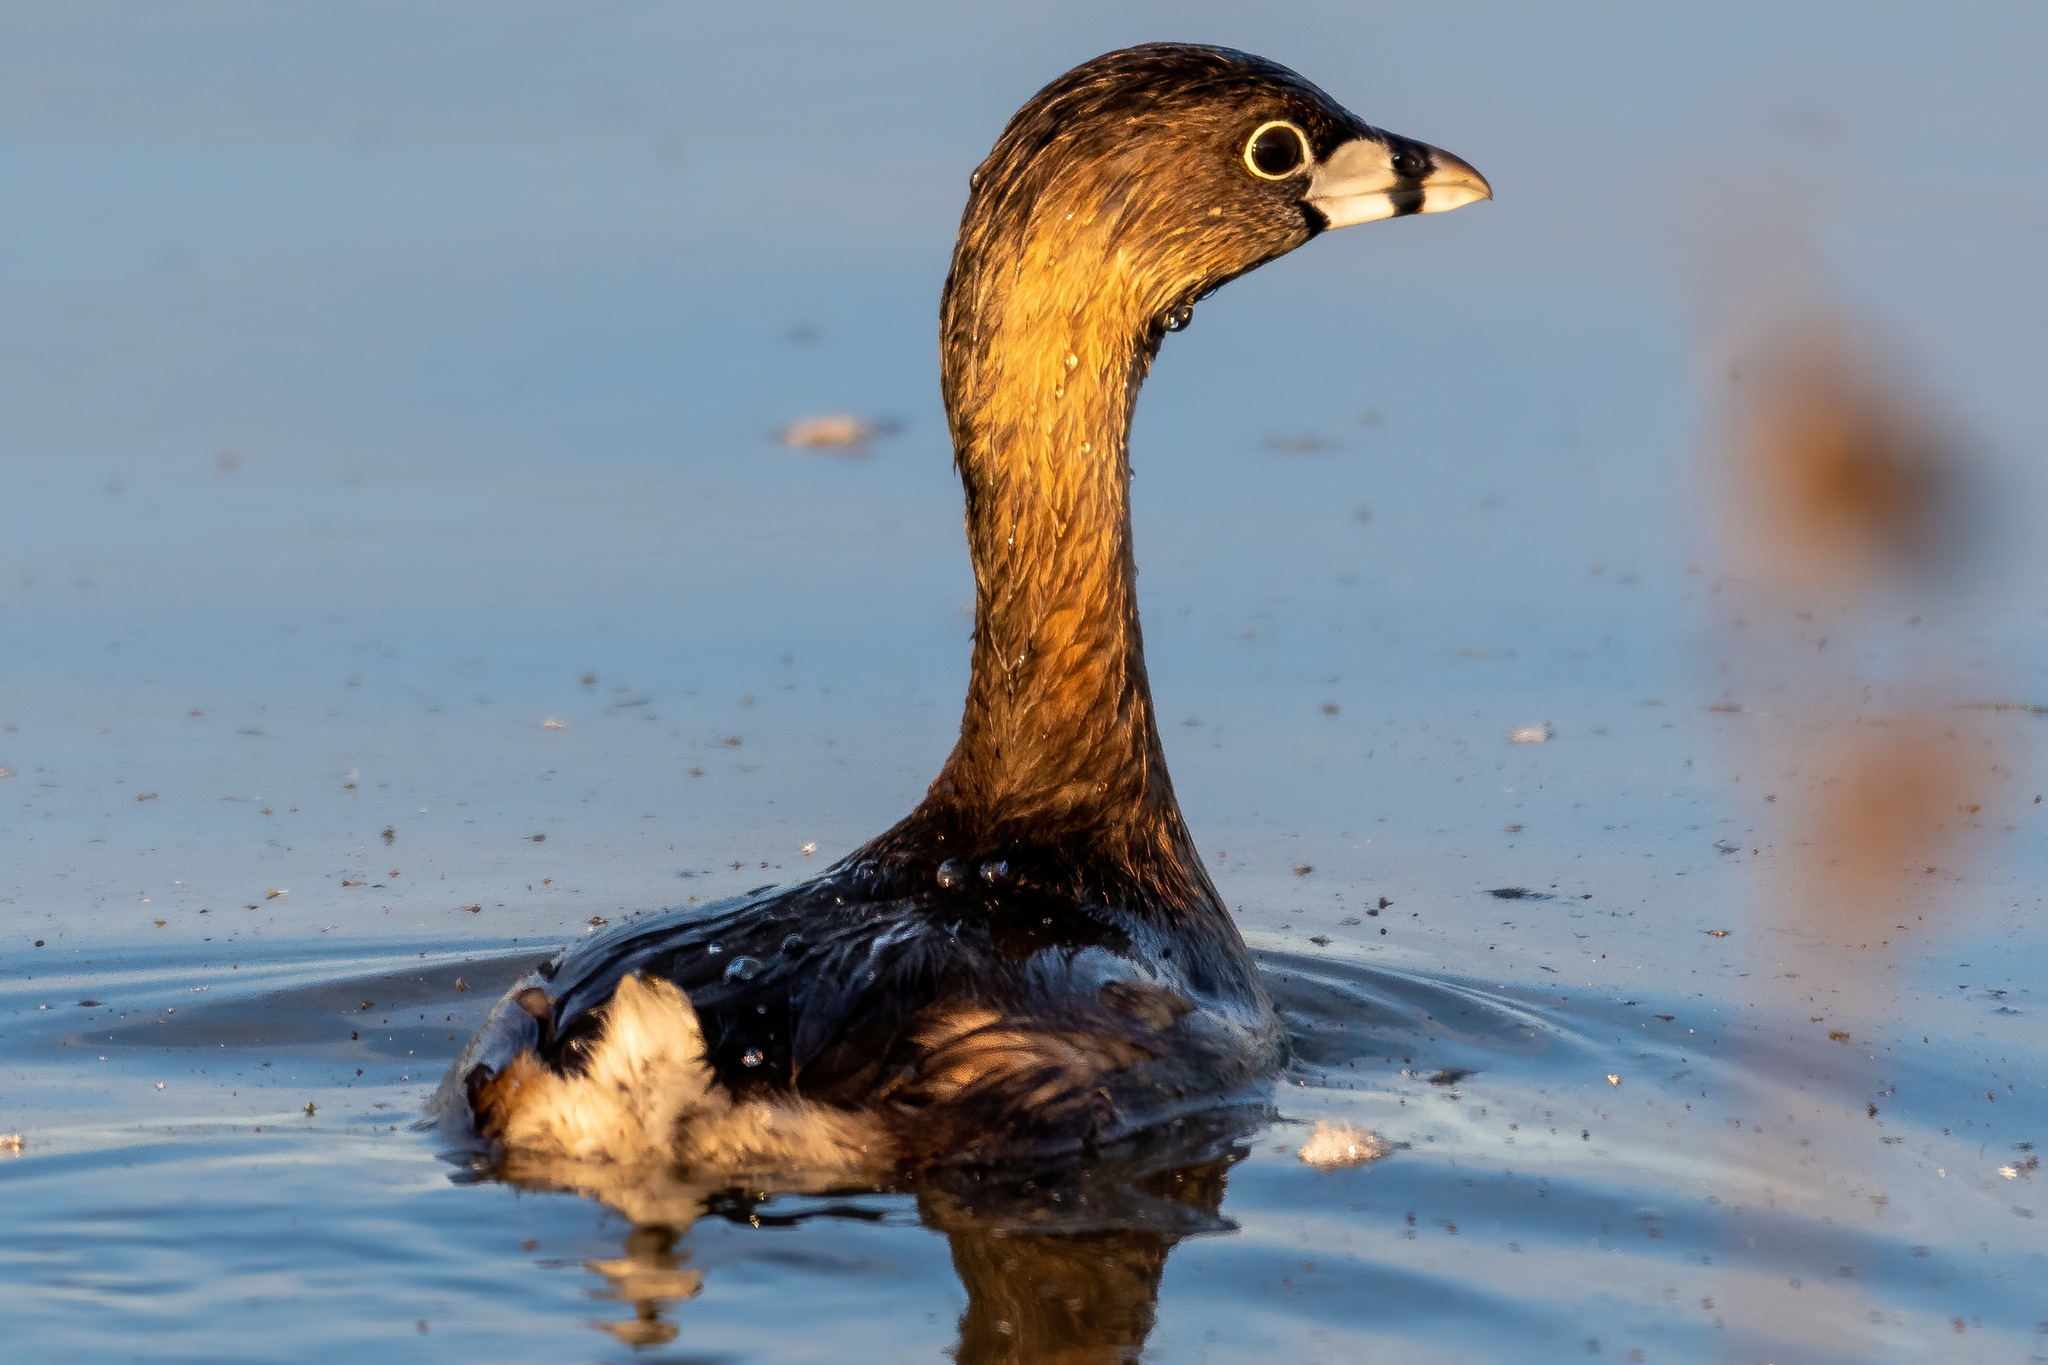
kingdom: Animalia
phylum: Chordata
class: Aves
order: Podicipediformes
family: Podicipedidae
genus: Podilymbus
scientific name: Podilymbus podiceps
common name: Pied-billed grebe
